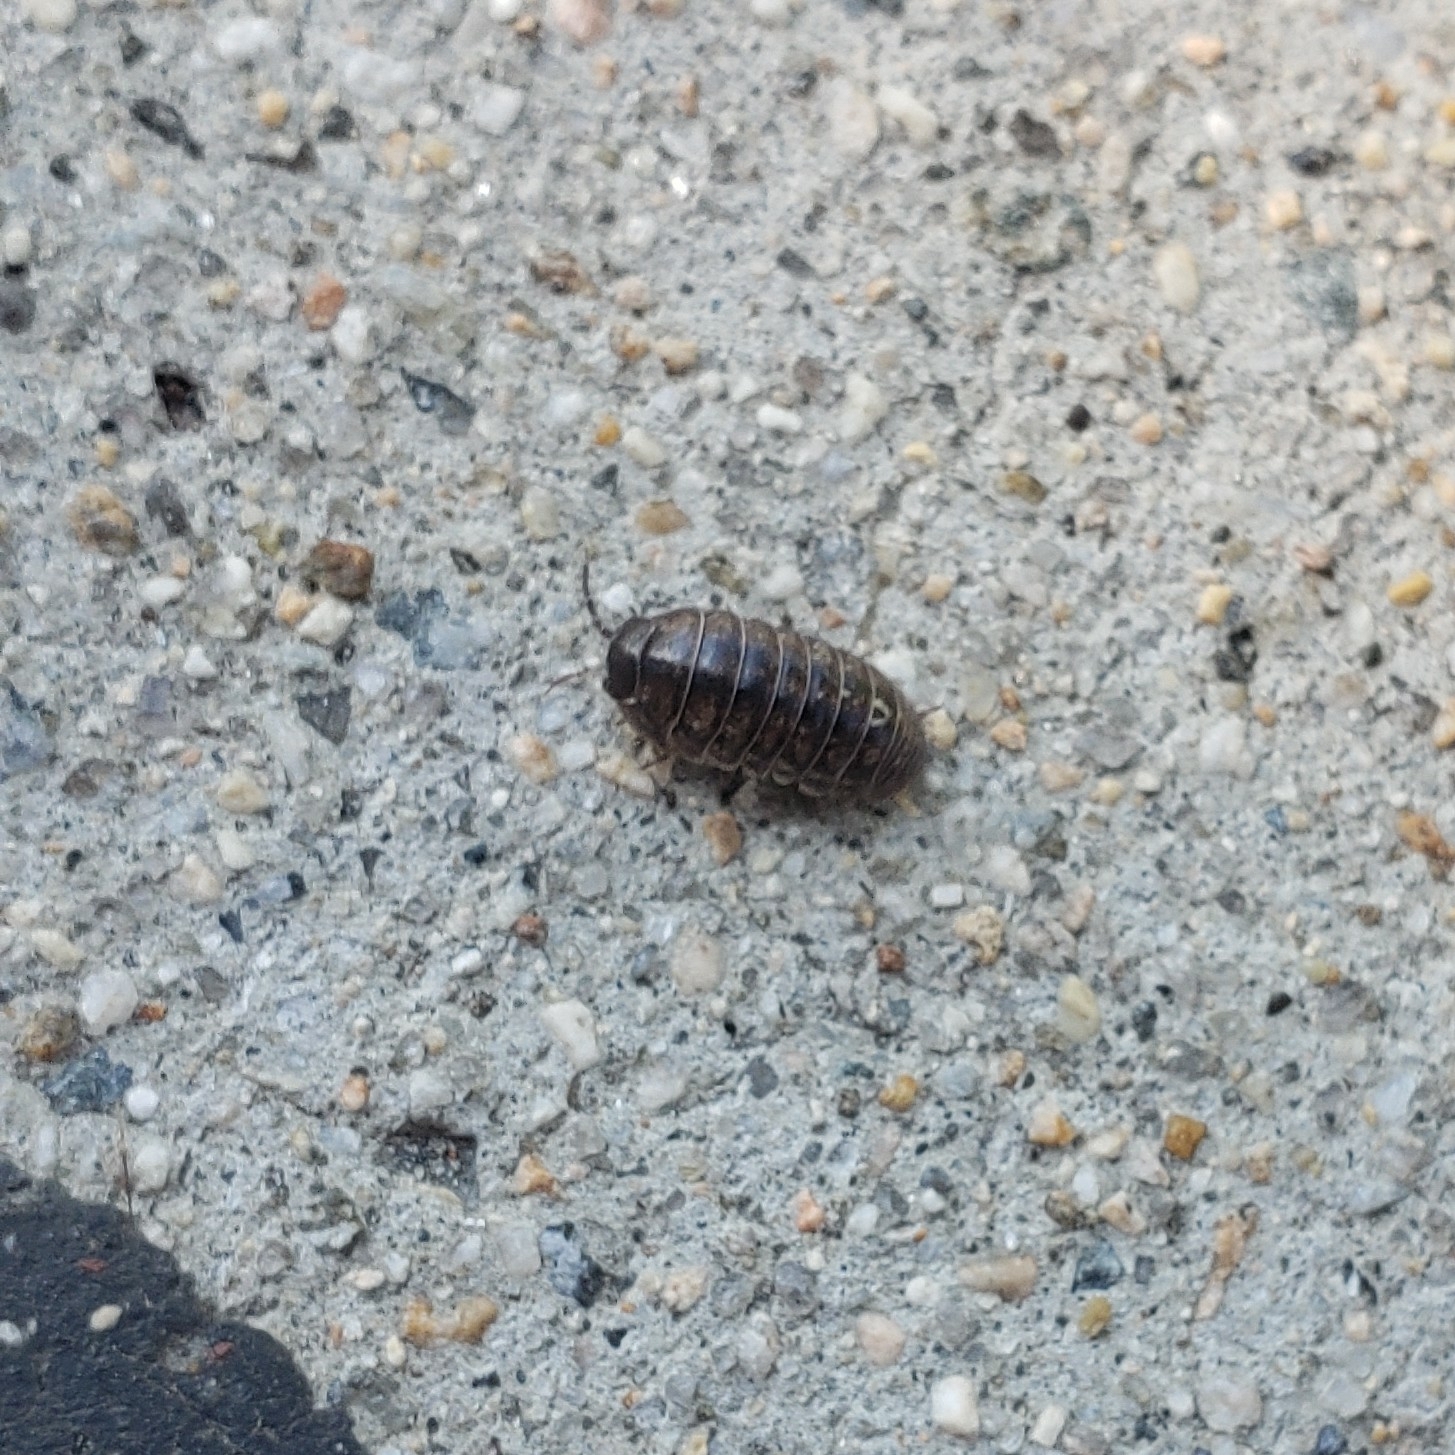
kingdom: Animalia
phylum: Arthropoda
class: Malacostraca
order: Isopoda
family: Armadillidiidae
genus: Armadillidium
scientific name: Armadillidium vulgare
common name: Common pill woodlouse
